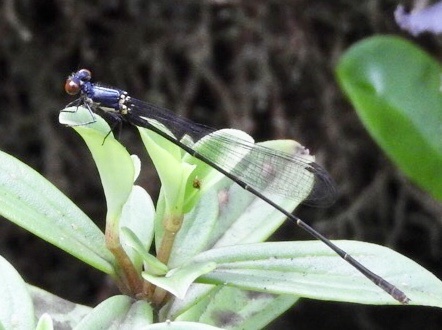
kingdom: Animalia
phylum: Arthropoda
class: Insecta
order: Odonata
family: Coenagrionidae
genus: Megalagrion
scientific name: Megalagrion adytum
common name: Adytum swamp damselfly
